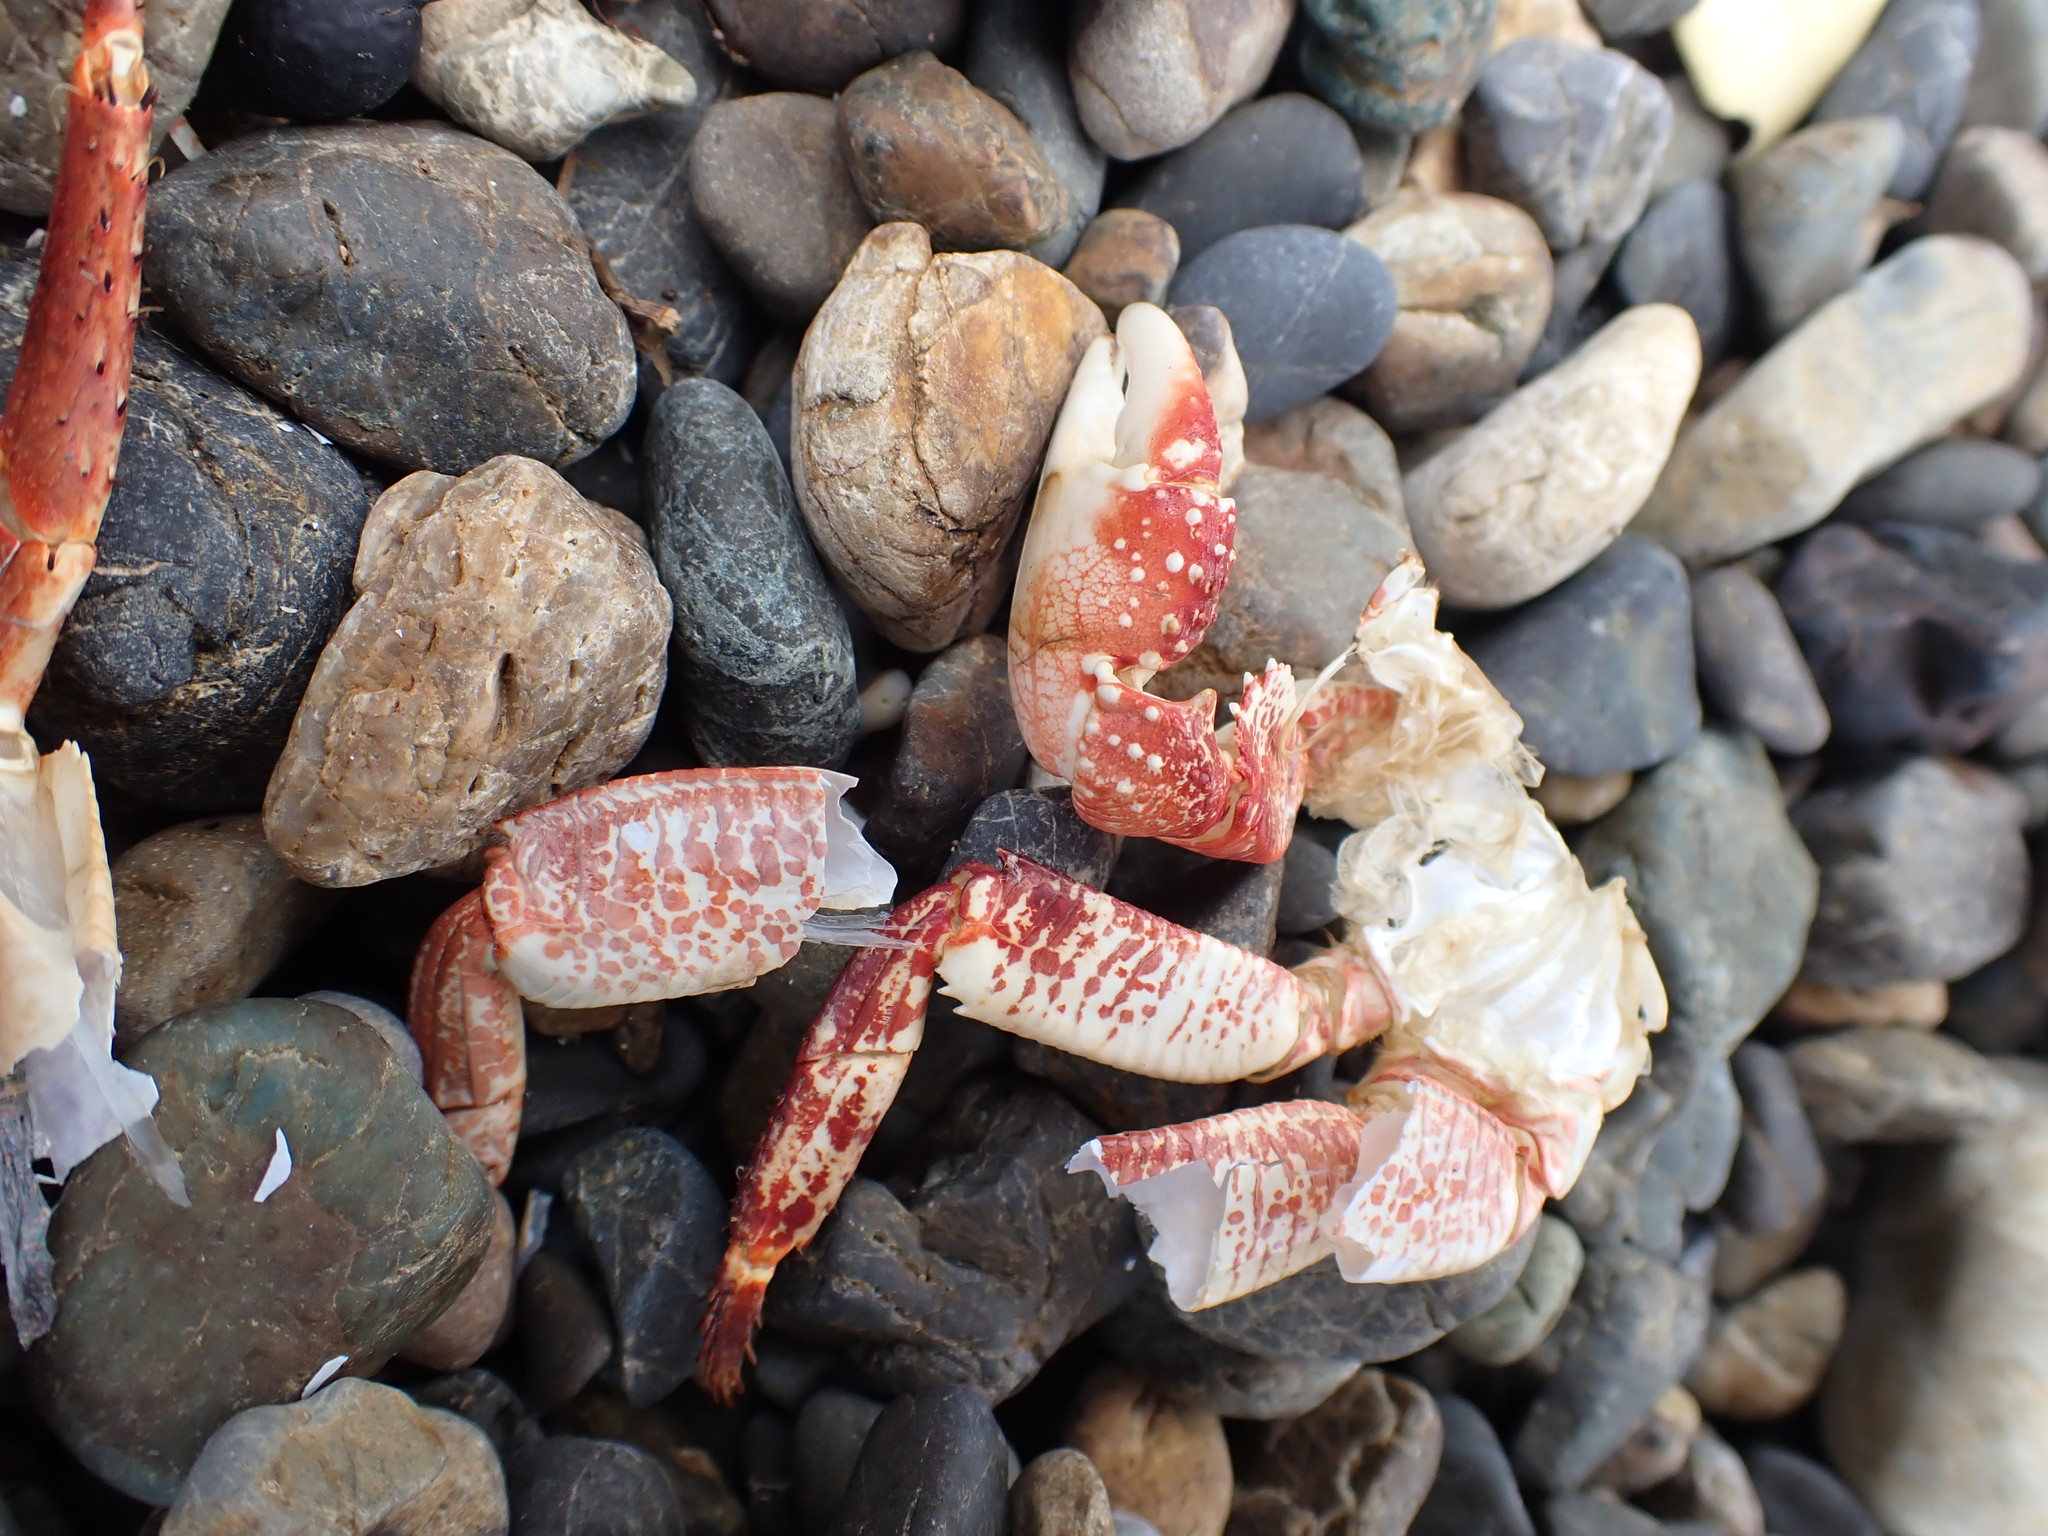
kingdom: Animalia
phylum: Arthropoda
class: Malacostraca
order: Decapoda
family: Grapsidae
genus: Leptograpsus
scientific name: Leptograpsus variegatus
